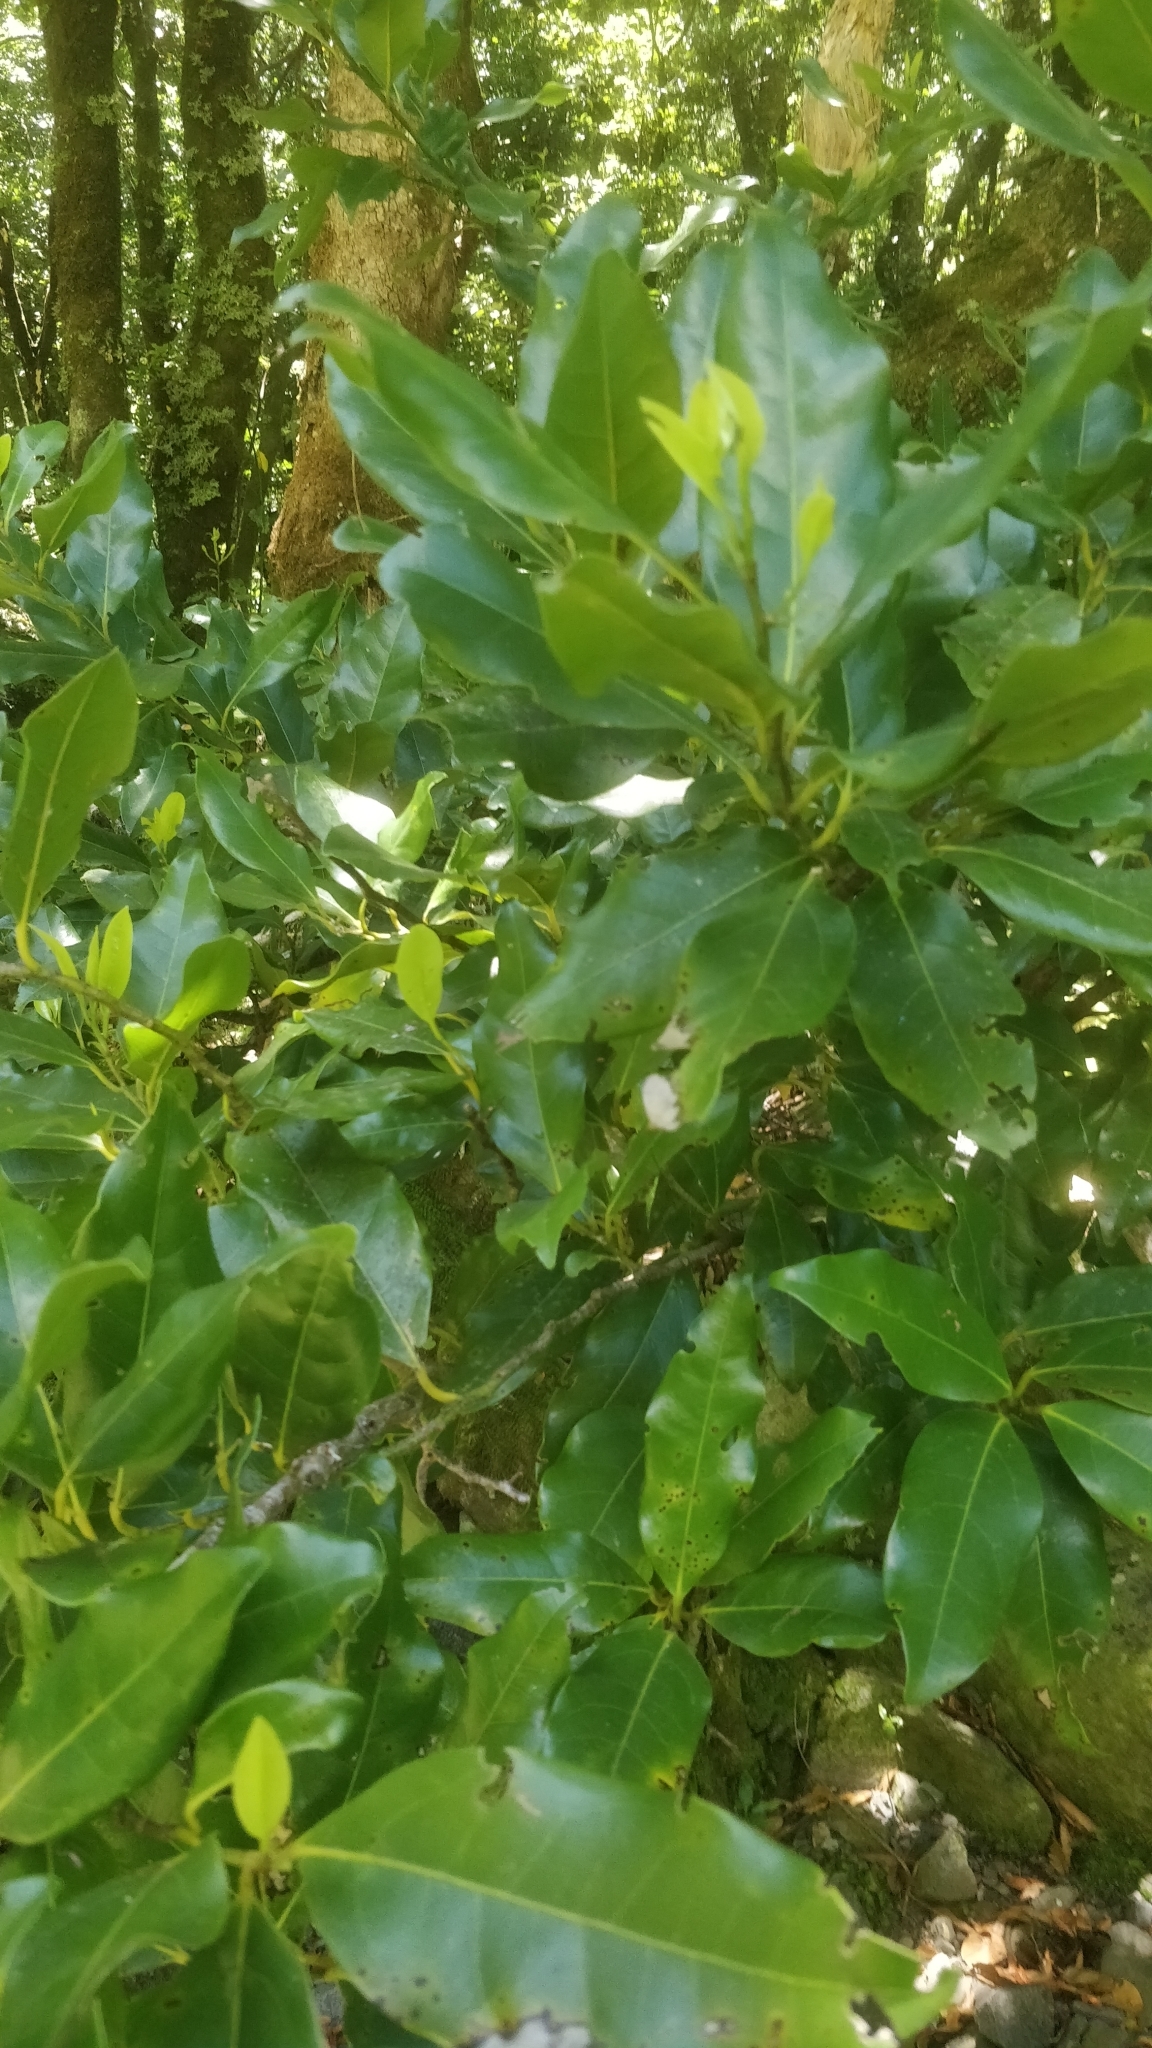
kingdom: Plantae
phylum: Tracheophyta
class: Magnoliopsida
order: Laurales
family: Lauraceae
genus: Mespilodaphne
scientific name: Mespilodaphne foetens
